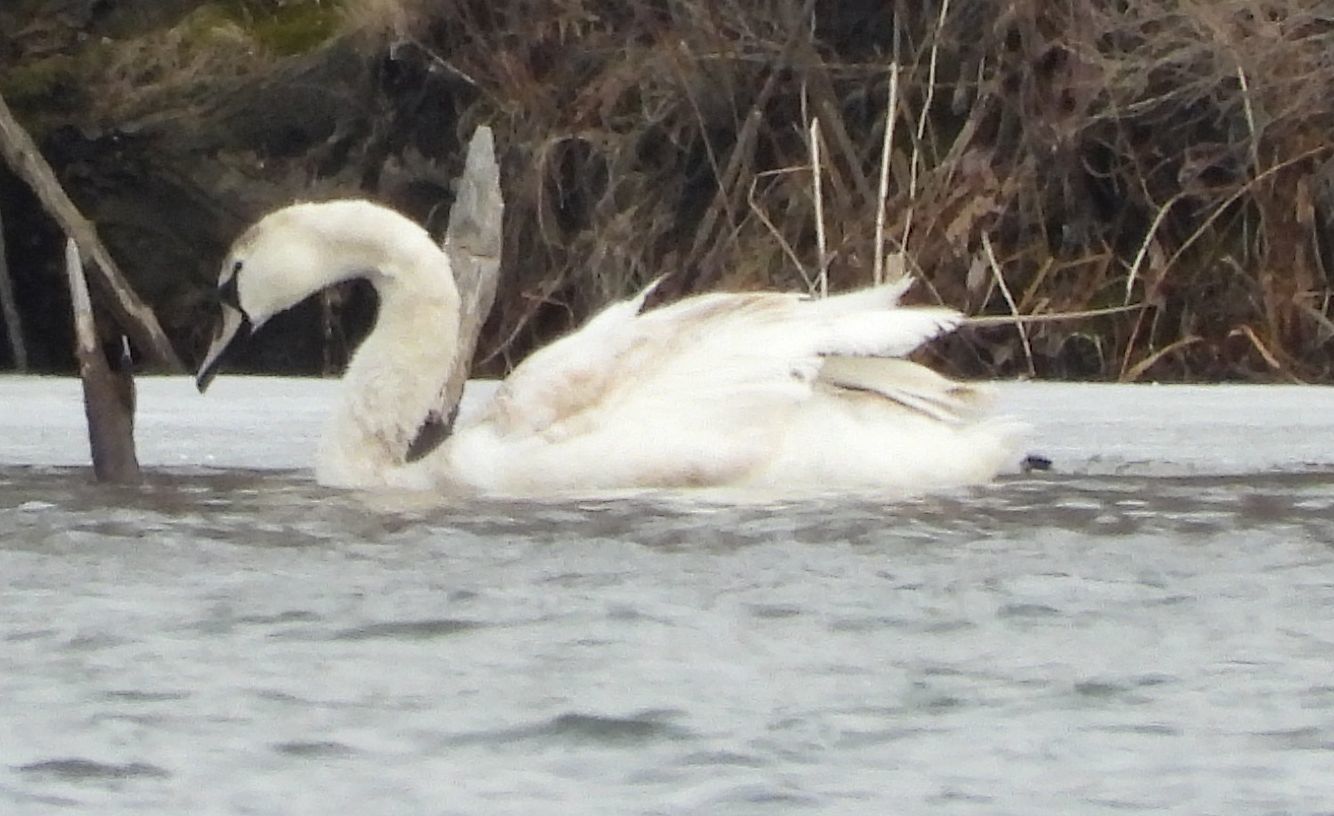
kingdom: Animalia
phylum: Chordata
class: Aves
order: Anseriformes
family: Anatidae
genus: Cygnus
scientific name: Cygnus olor
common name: Mute swan
